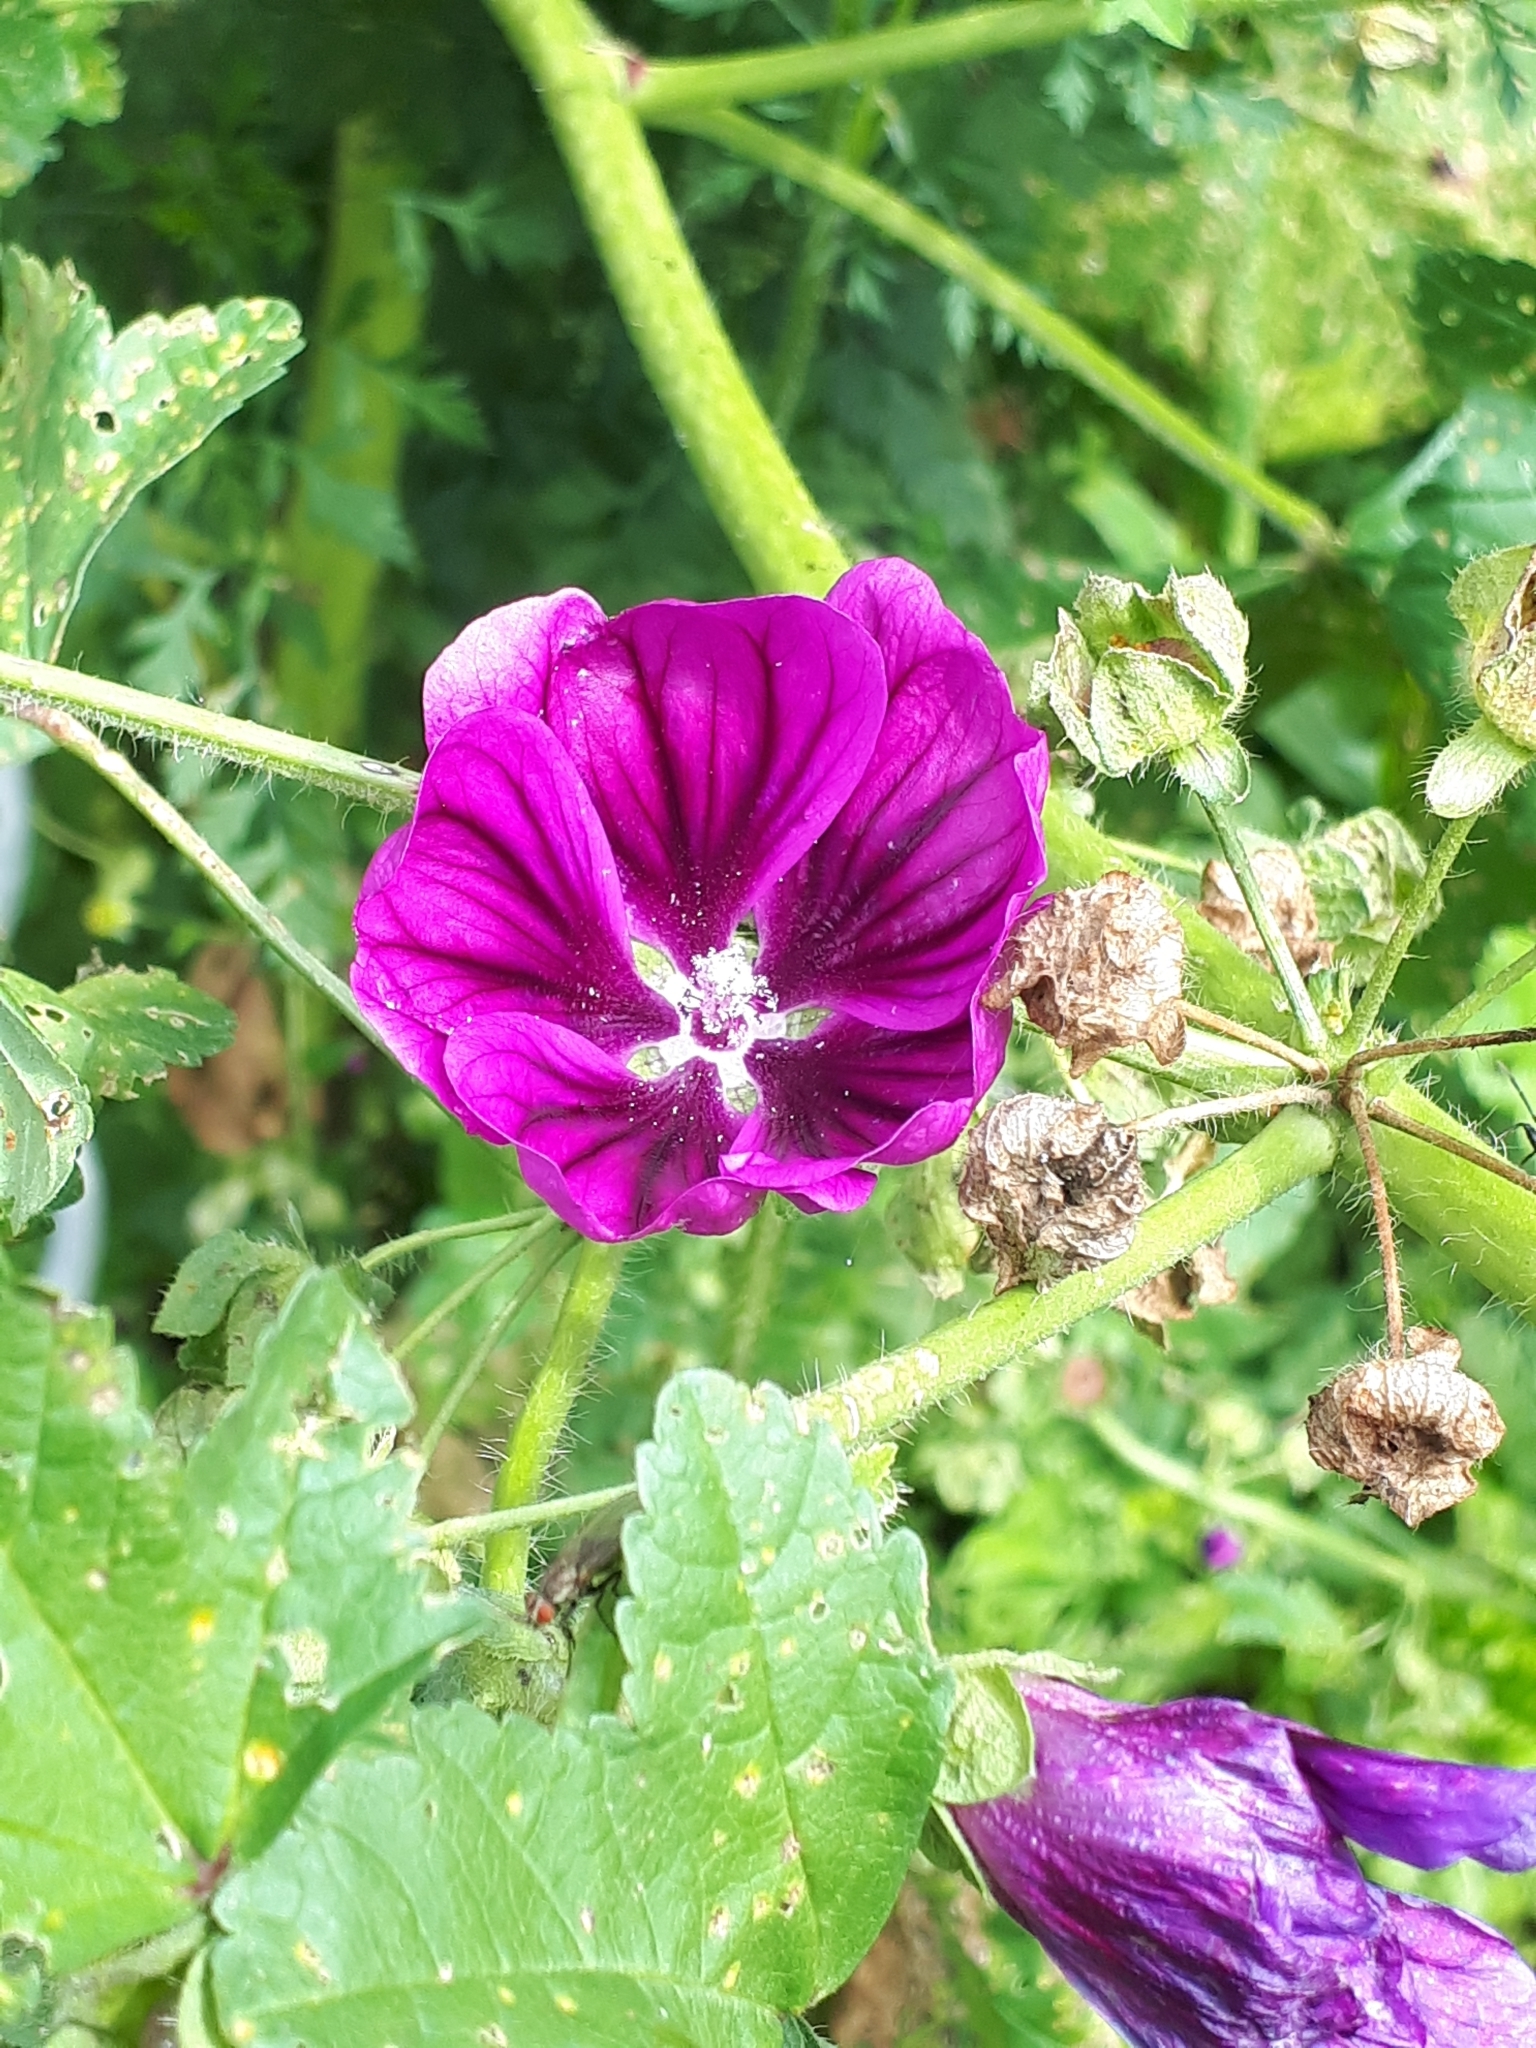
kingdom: Plantae
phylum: Tracheophyta
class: Magnoliopsida
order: Malvales
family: Malvaceae
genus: Malva
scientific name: Malva sylvestris
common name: Common mallow
